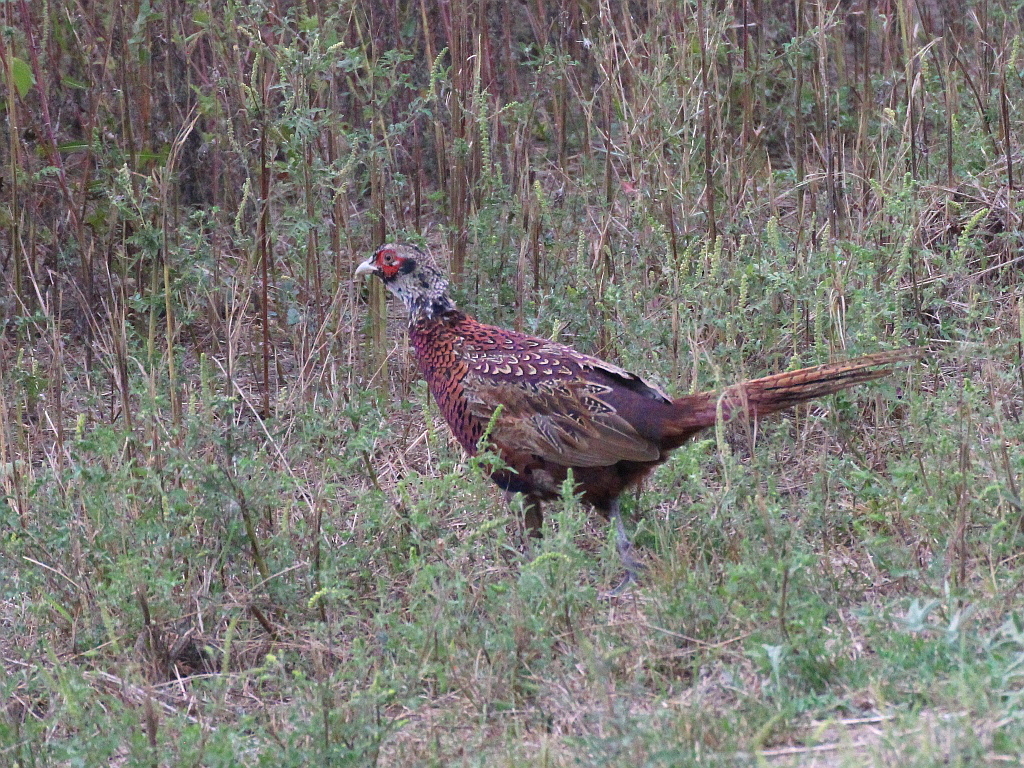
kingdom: Animalia
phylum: Chordata
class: Aves
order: Galliformes
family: Phasianidae
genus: Phasianus
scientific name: Phasianus colchicus
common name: Common pheasant
